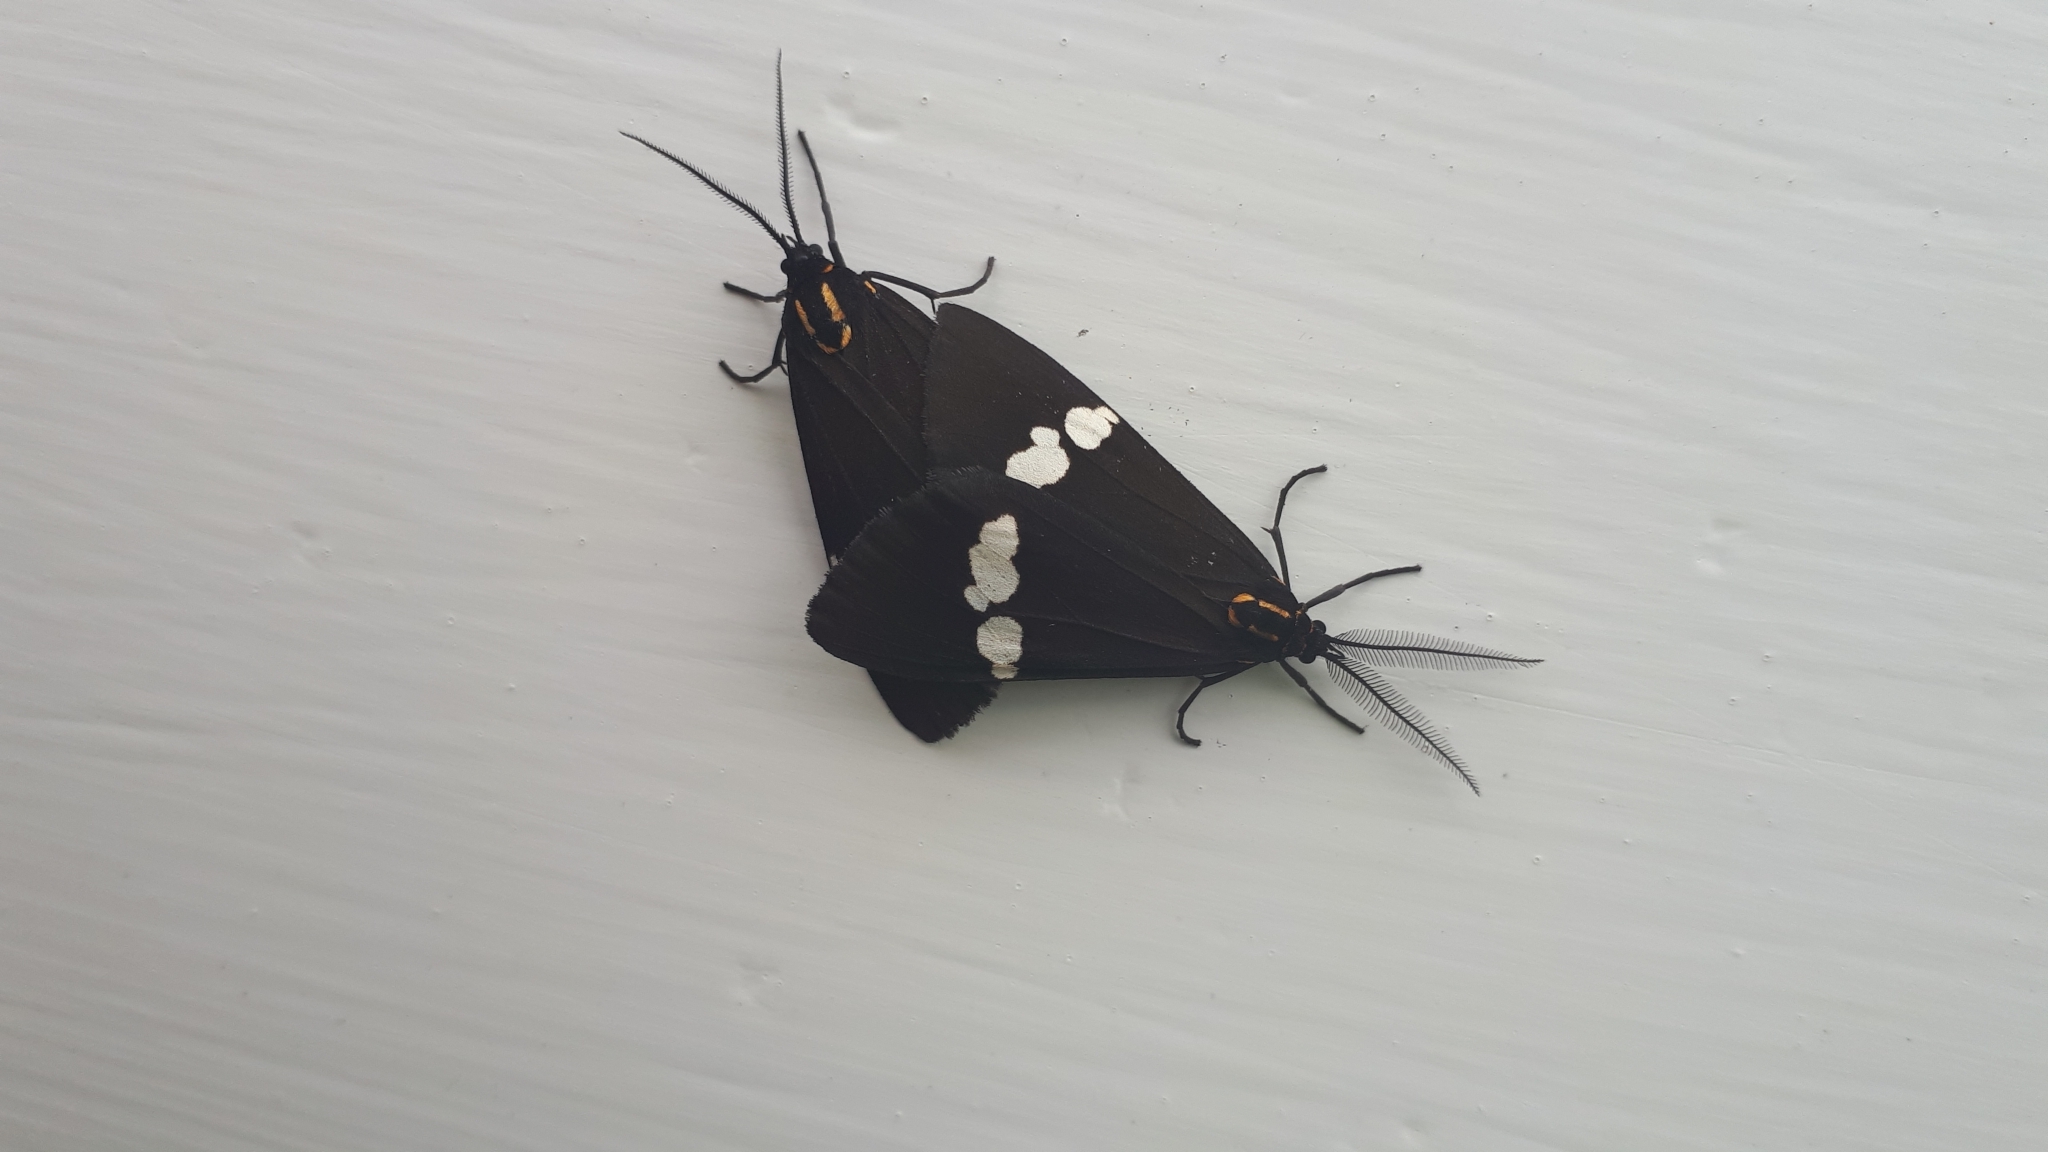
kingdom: Animalia
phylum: Arthropoda
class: Insecta
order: Lepidoptera
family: Erebidae
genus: Nyctemera
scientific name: Nyctemera annulatum
